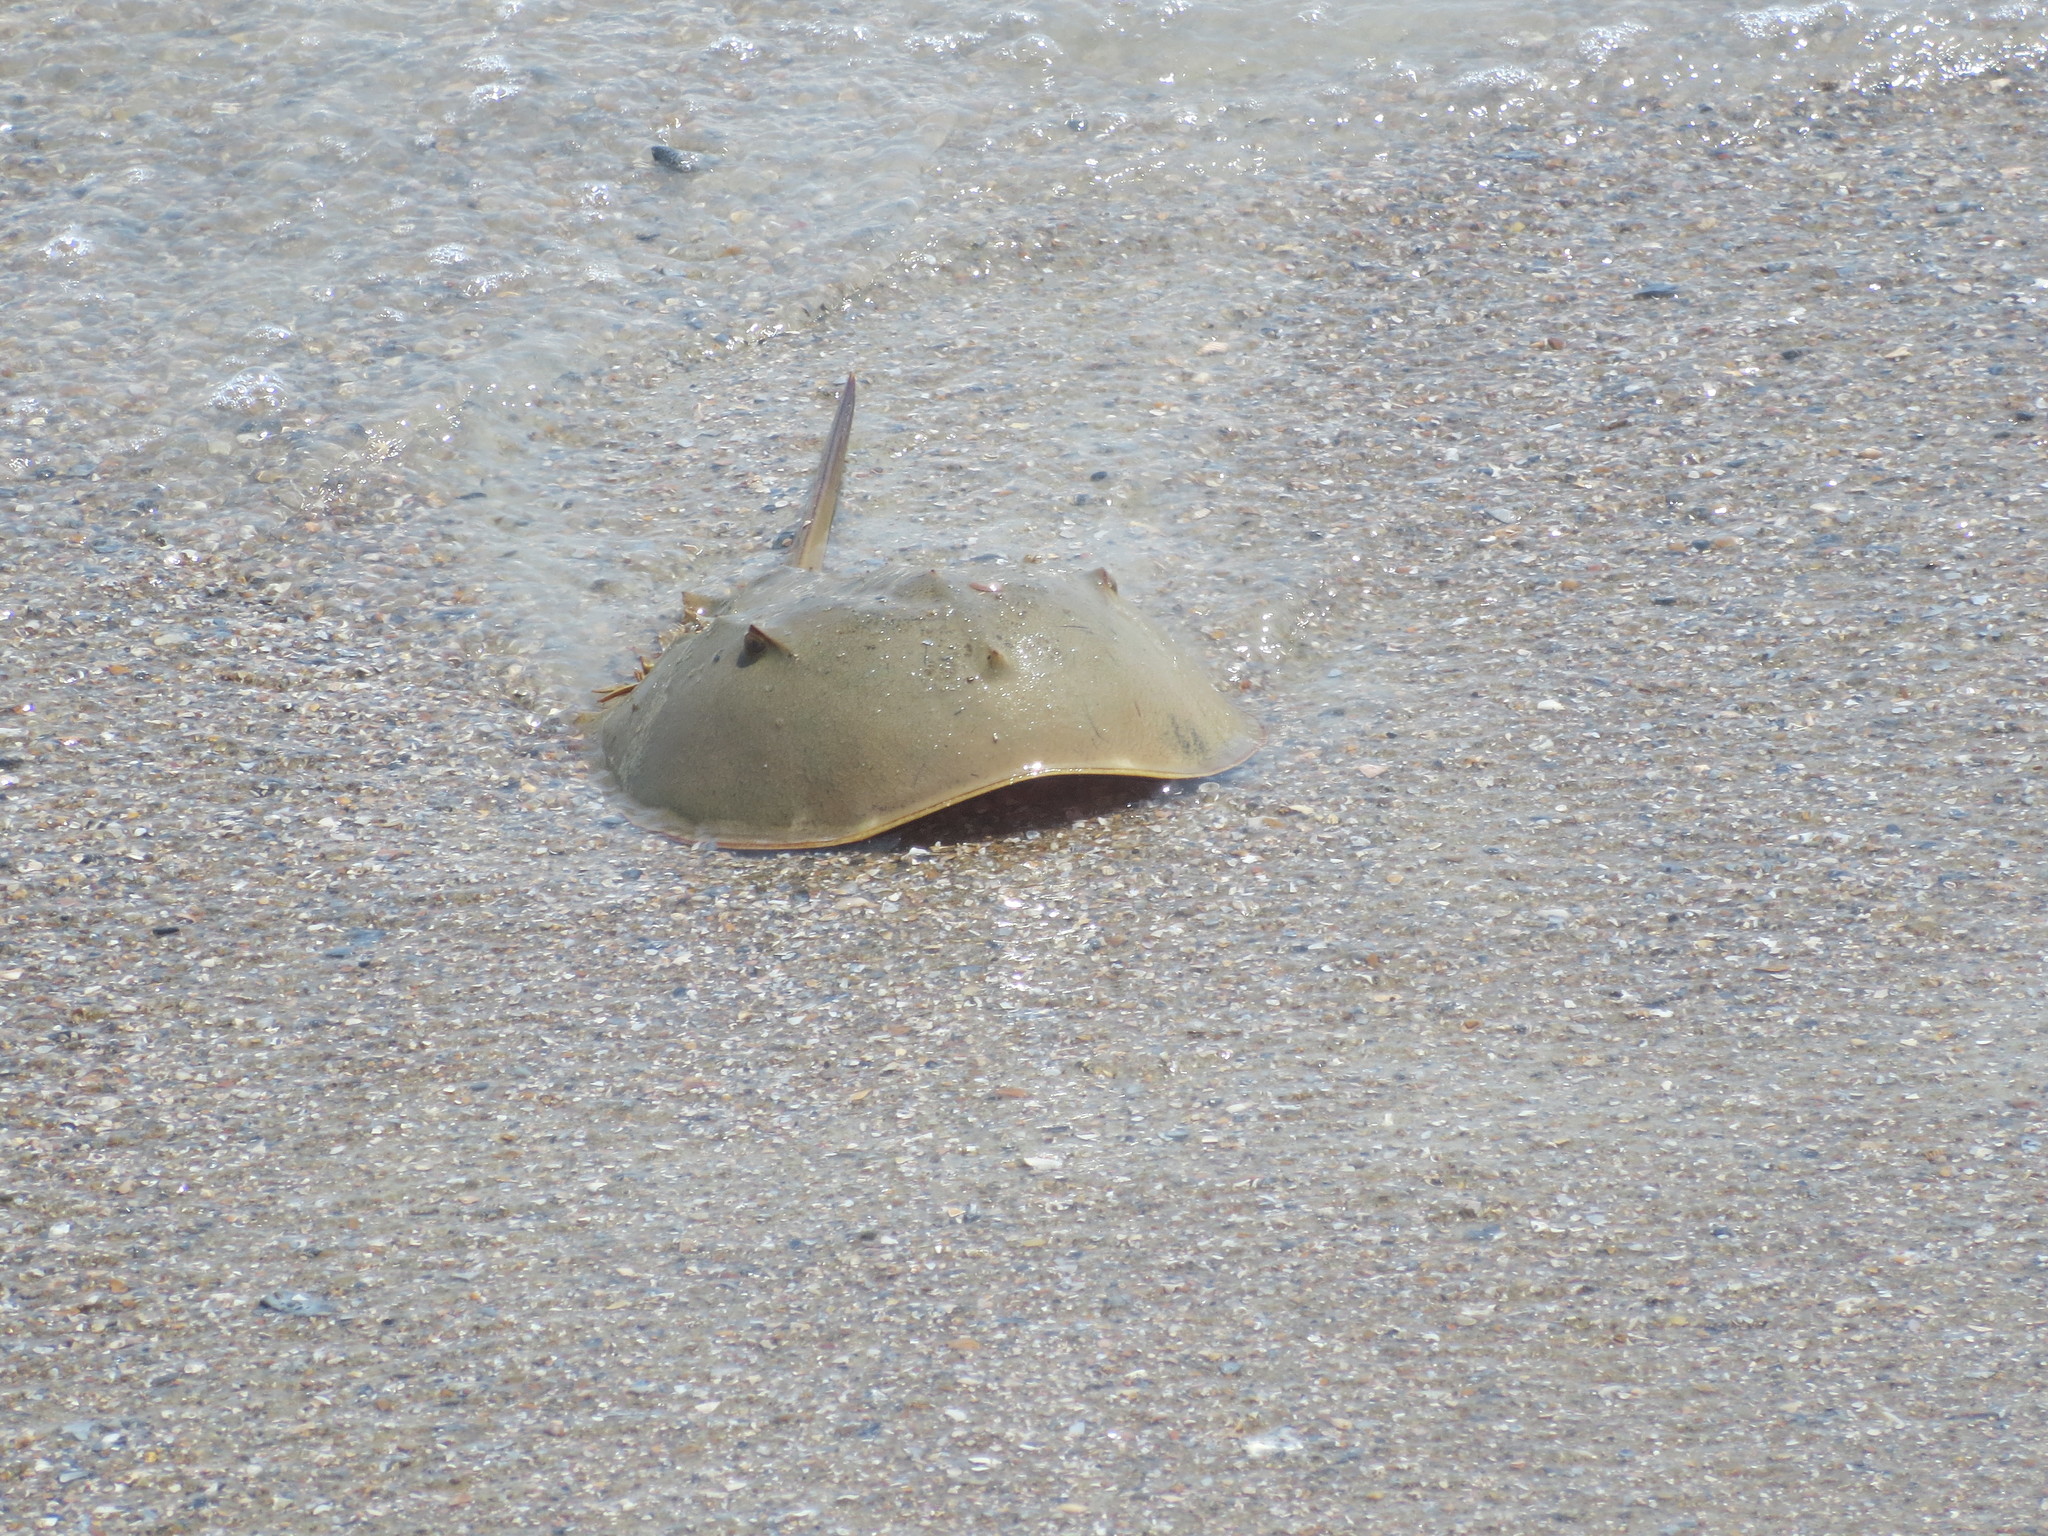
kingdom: Animalia
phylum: Arthropoda
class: Merostomata
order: Xiphosurida
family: Limulidae
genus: Limulus
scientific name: Limulus polyphemus
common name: Horseshoe crab
